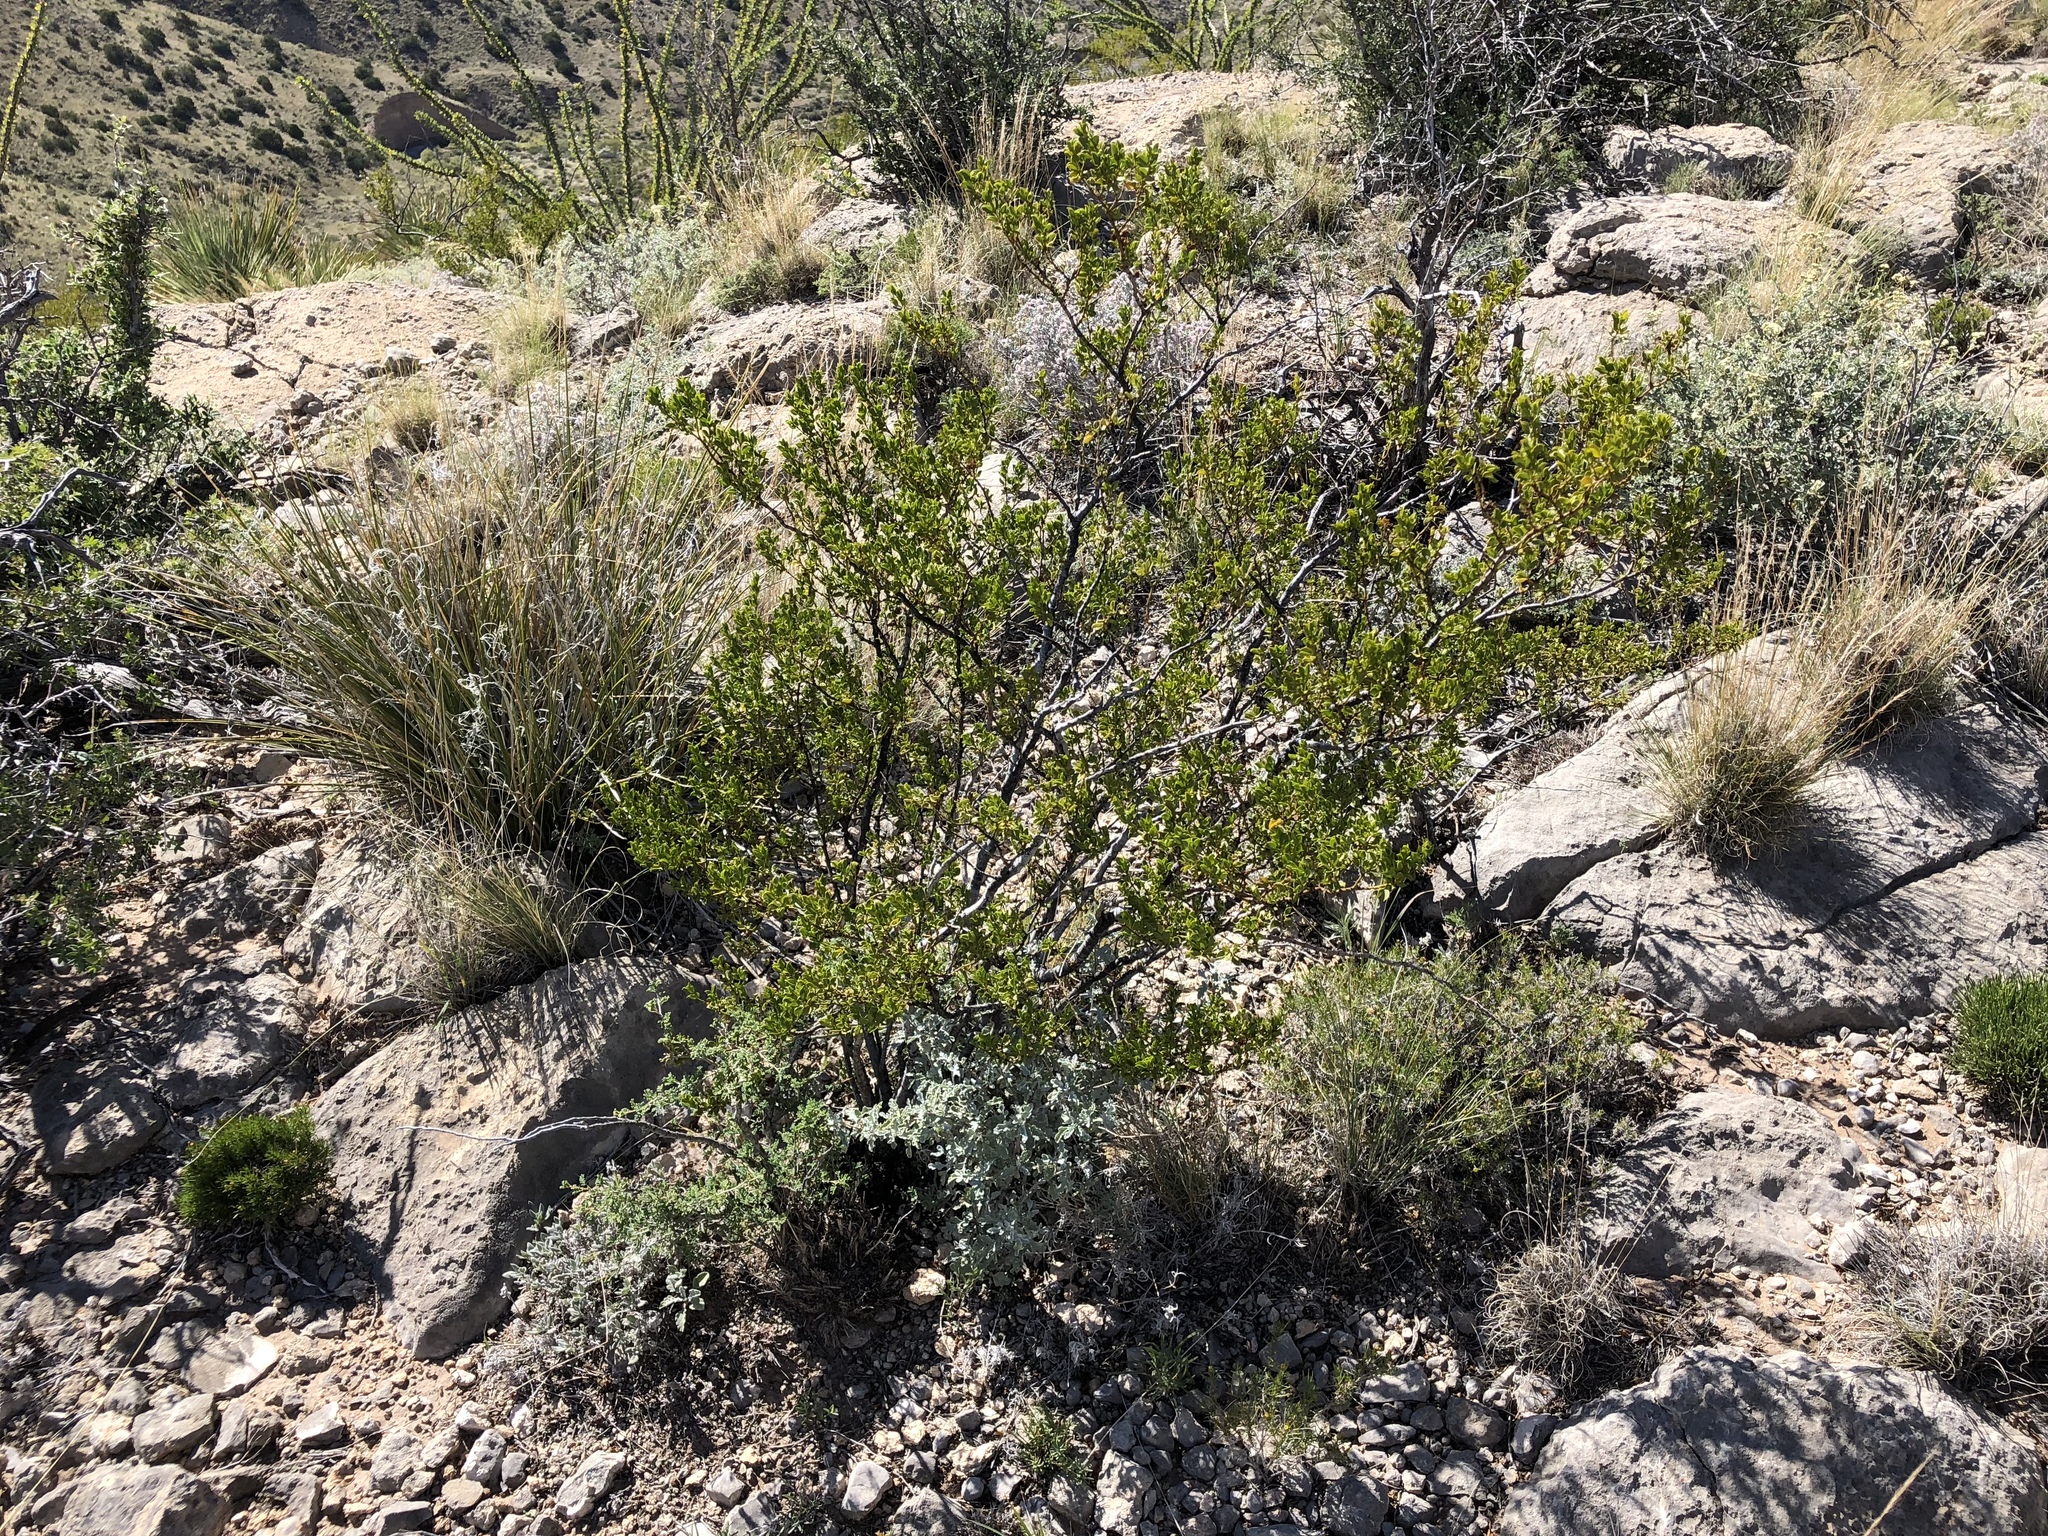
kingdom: Plantae
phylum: Tracheophyta
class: Magnoliopsida
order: Zygophyllales
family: Zygophyllaceae
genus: Larrea
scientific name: Larrea tridentata
